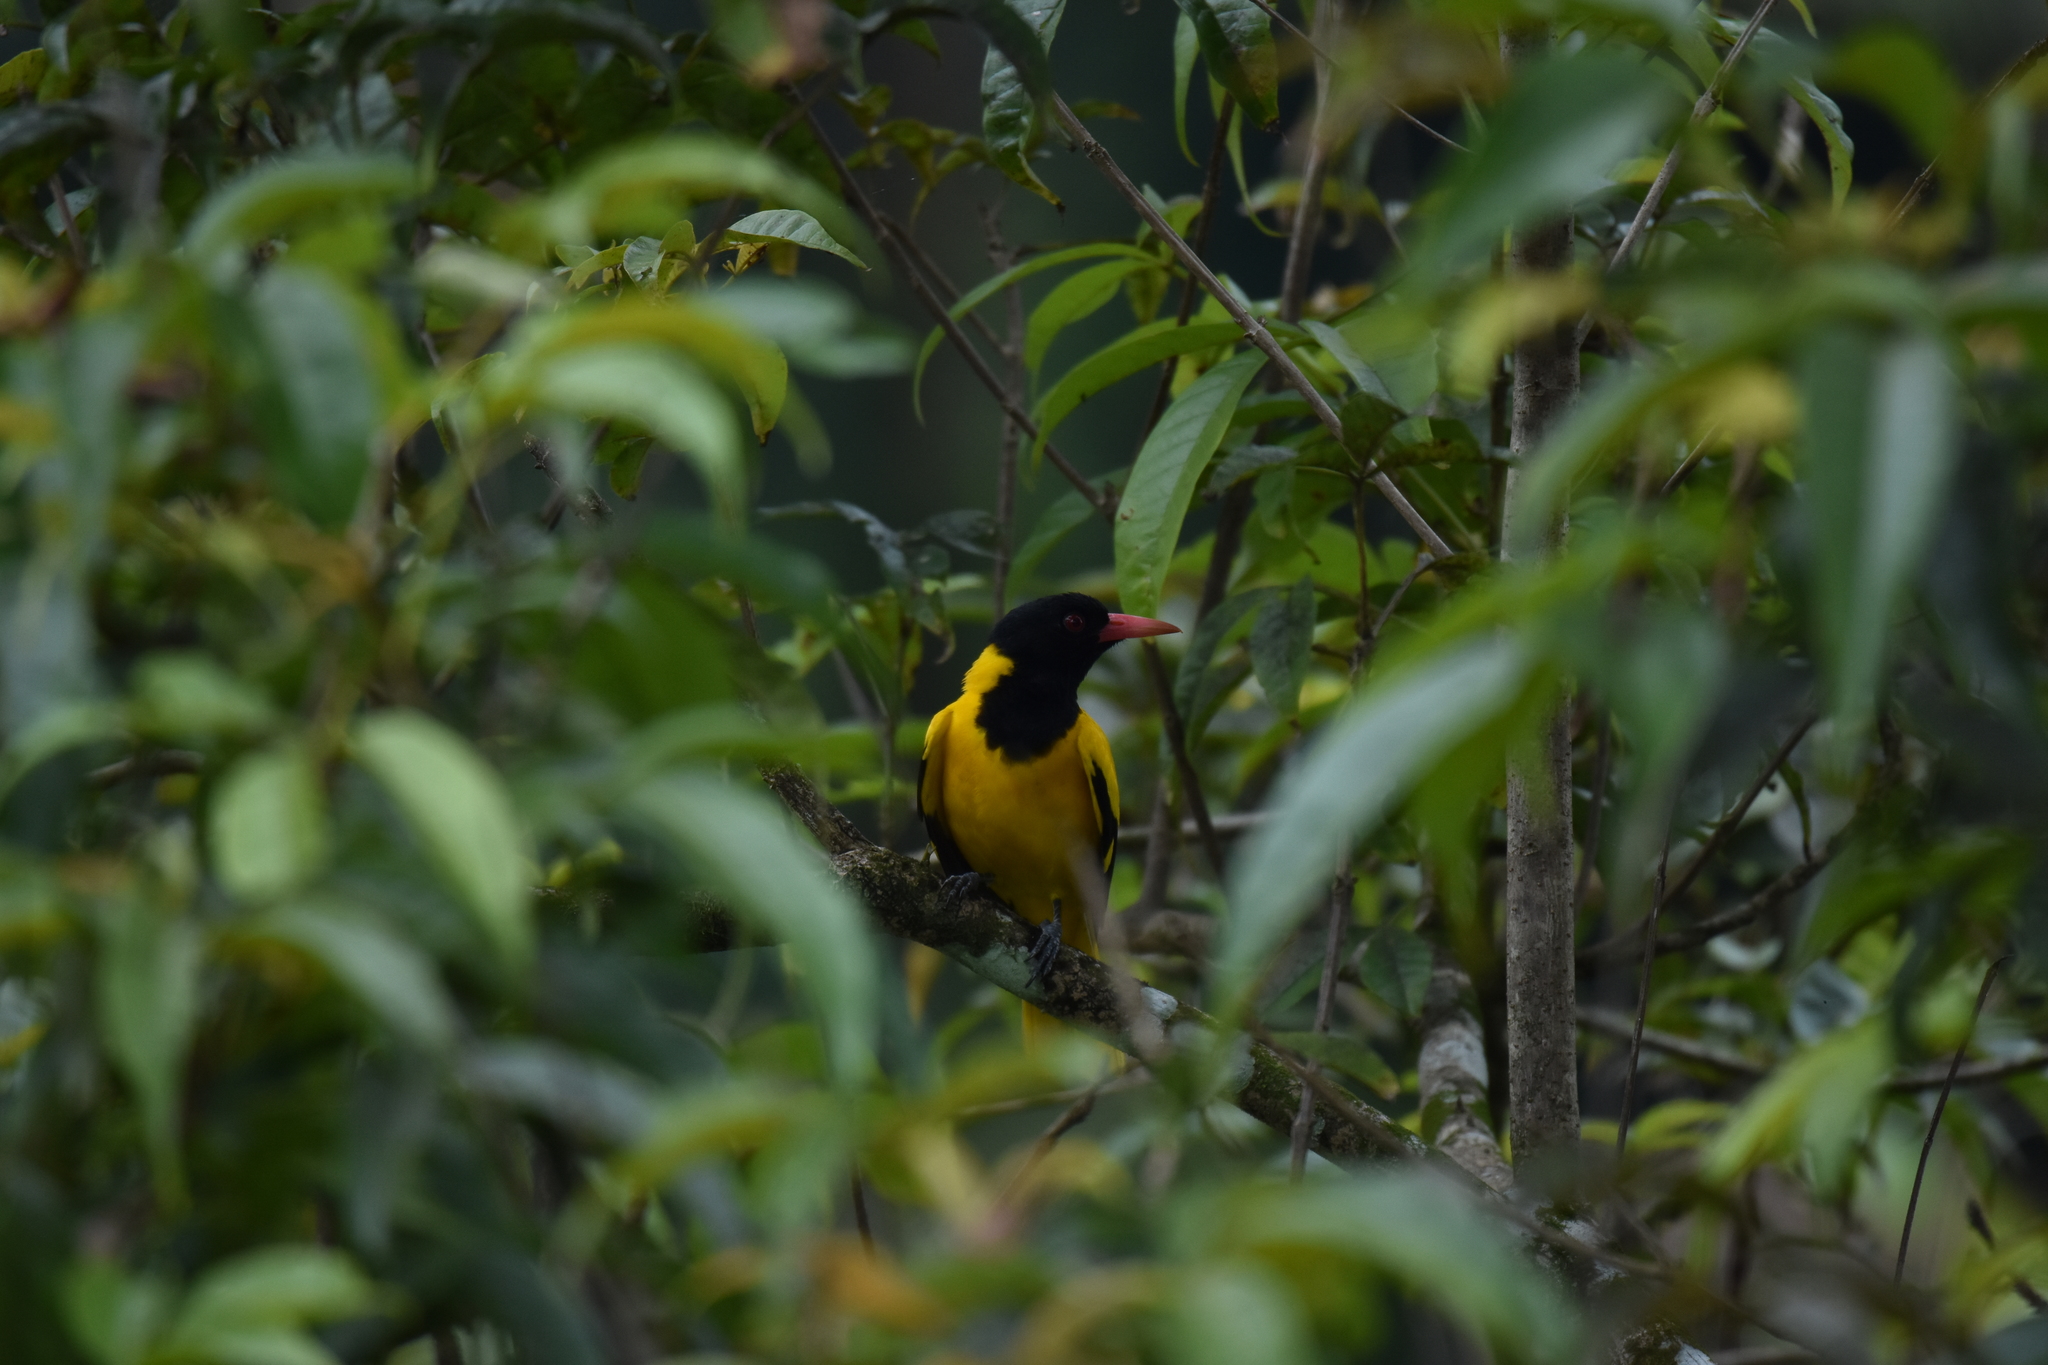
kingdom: Animalia
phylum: Chordata
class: Aves
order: Passeriformes
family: Oriolidae
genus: Oriolus
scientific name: Oriolus xanthornus
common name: Black-hooded oriole
